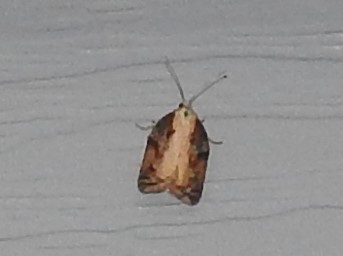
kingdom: Animalia
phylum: Arthropoda
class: Insecta
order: Lepidoptera
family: Tortricidae
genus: Acleris
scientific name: Acleris robinsoniana
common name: Robinson's acleris moth
